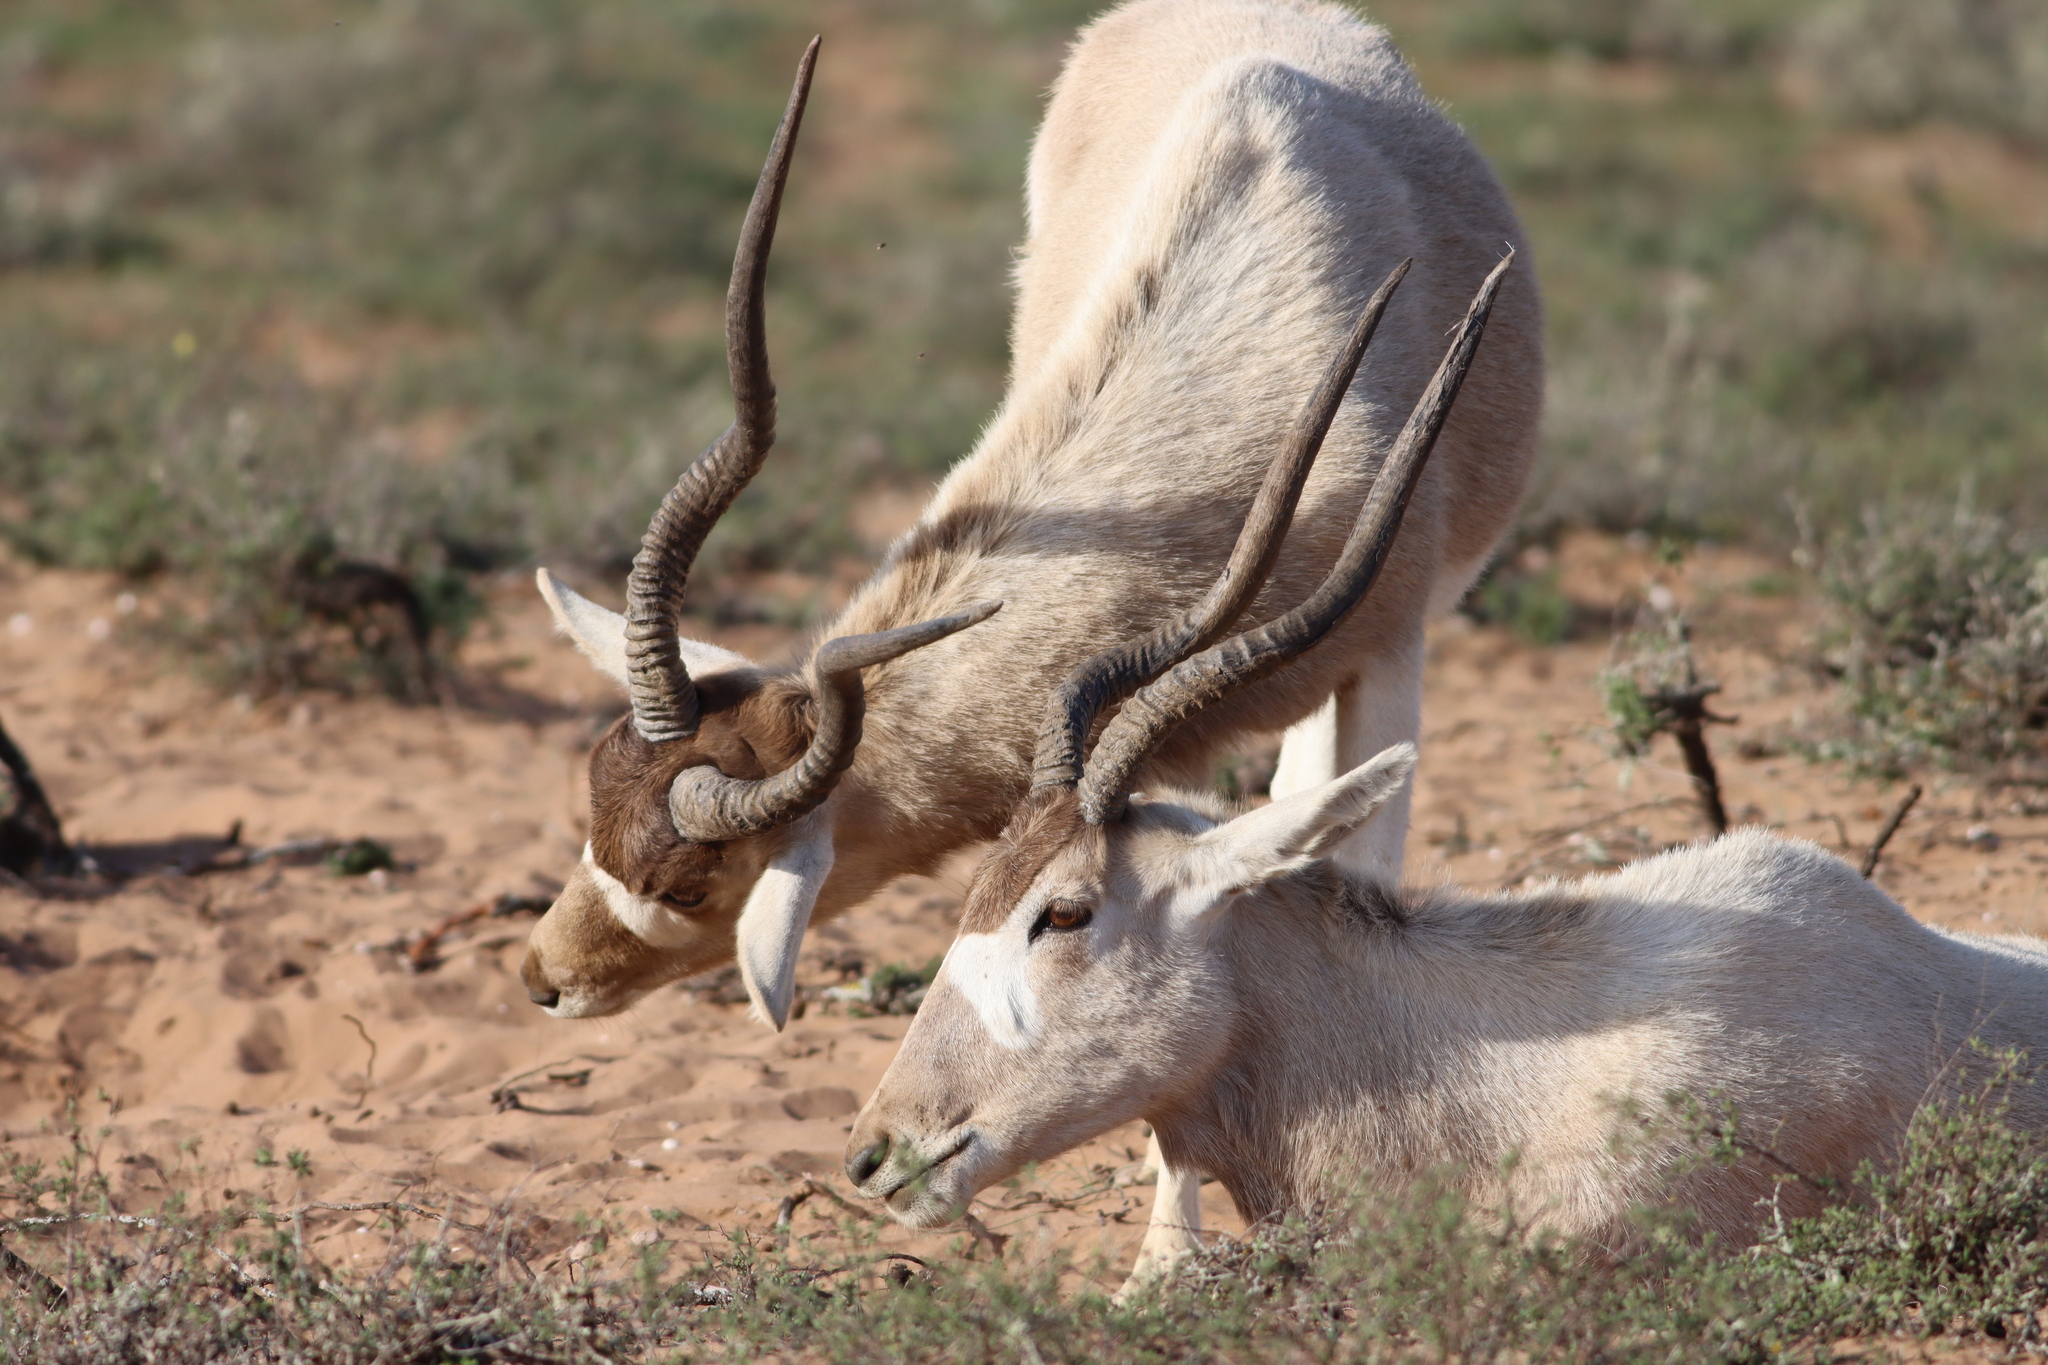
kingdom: Animalia
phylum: Chordata
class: Mammalia
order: Artiodactyla
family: Bovidae
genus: Addax
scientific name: Addax nasomaculatus
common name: Addax
